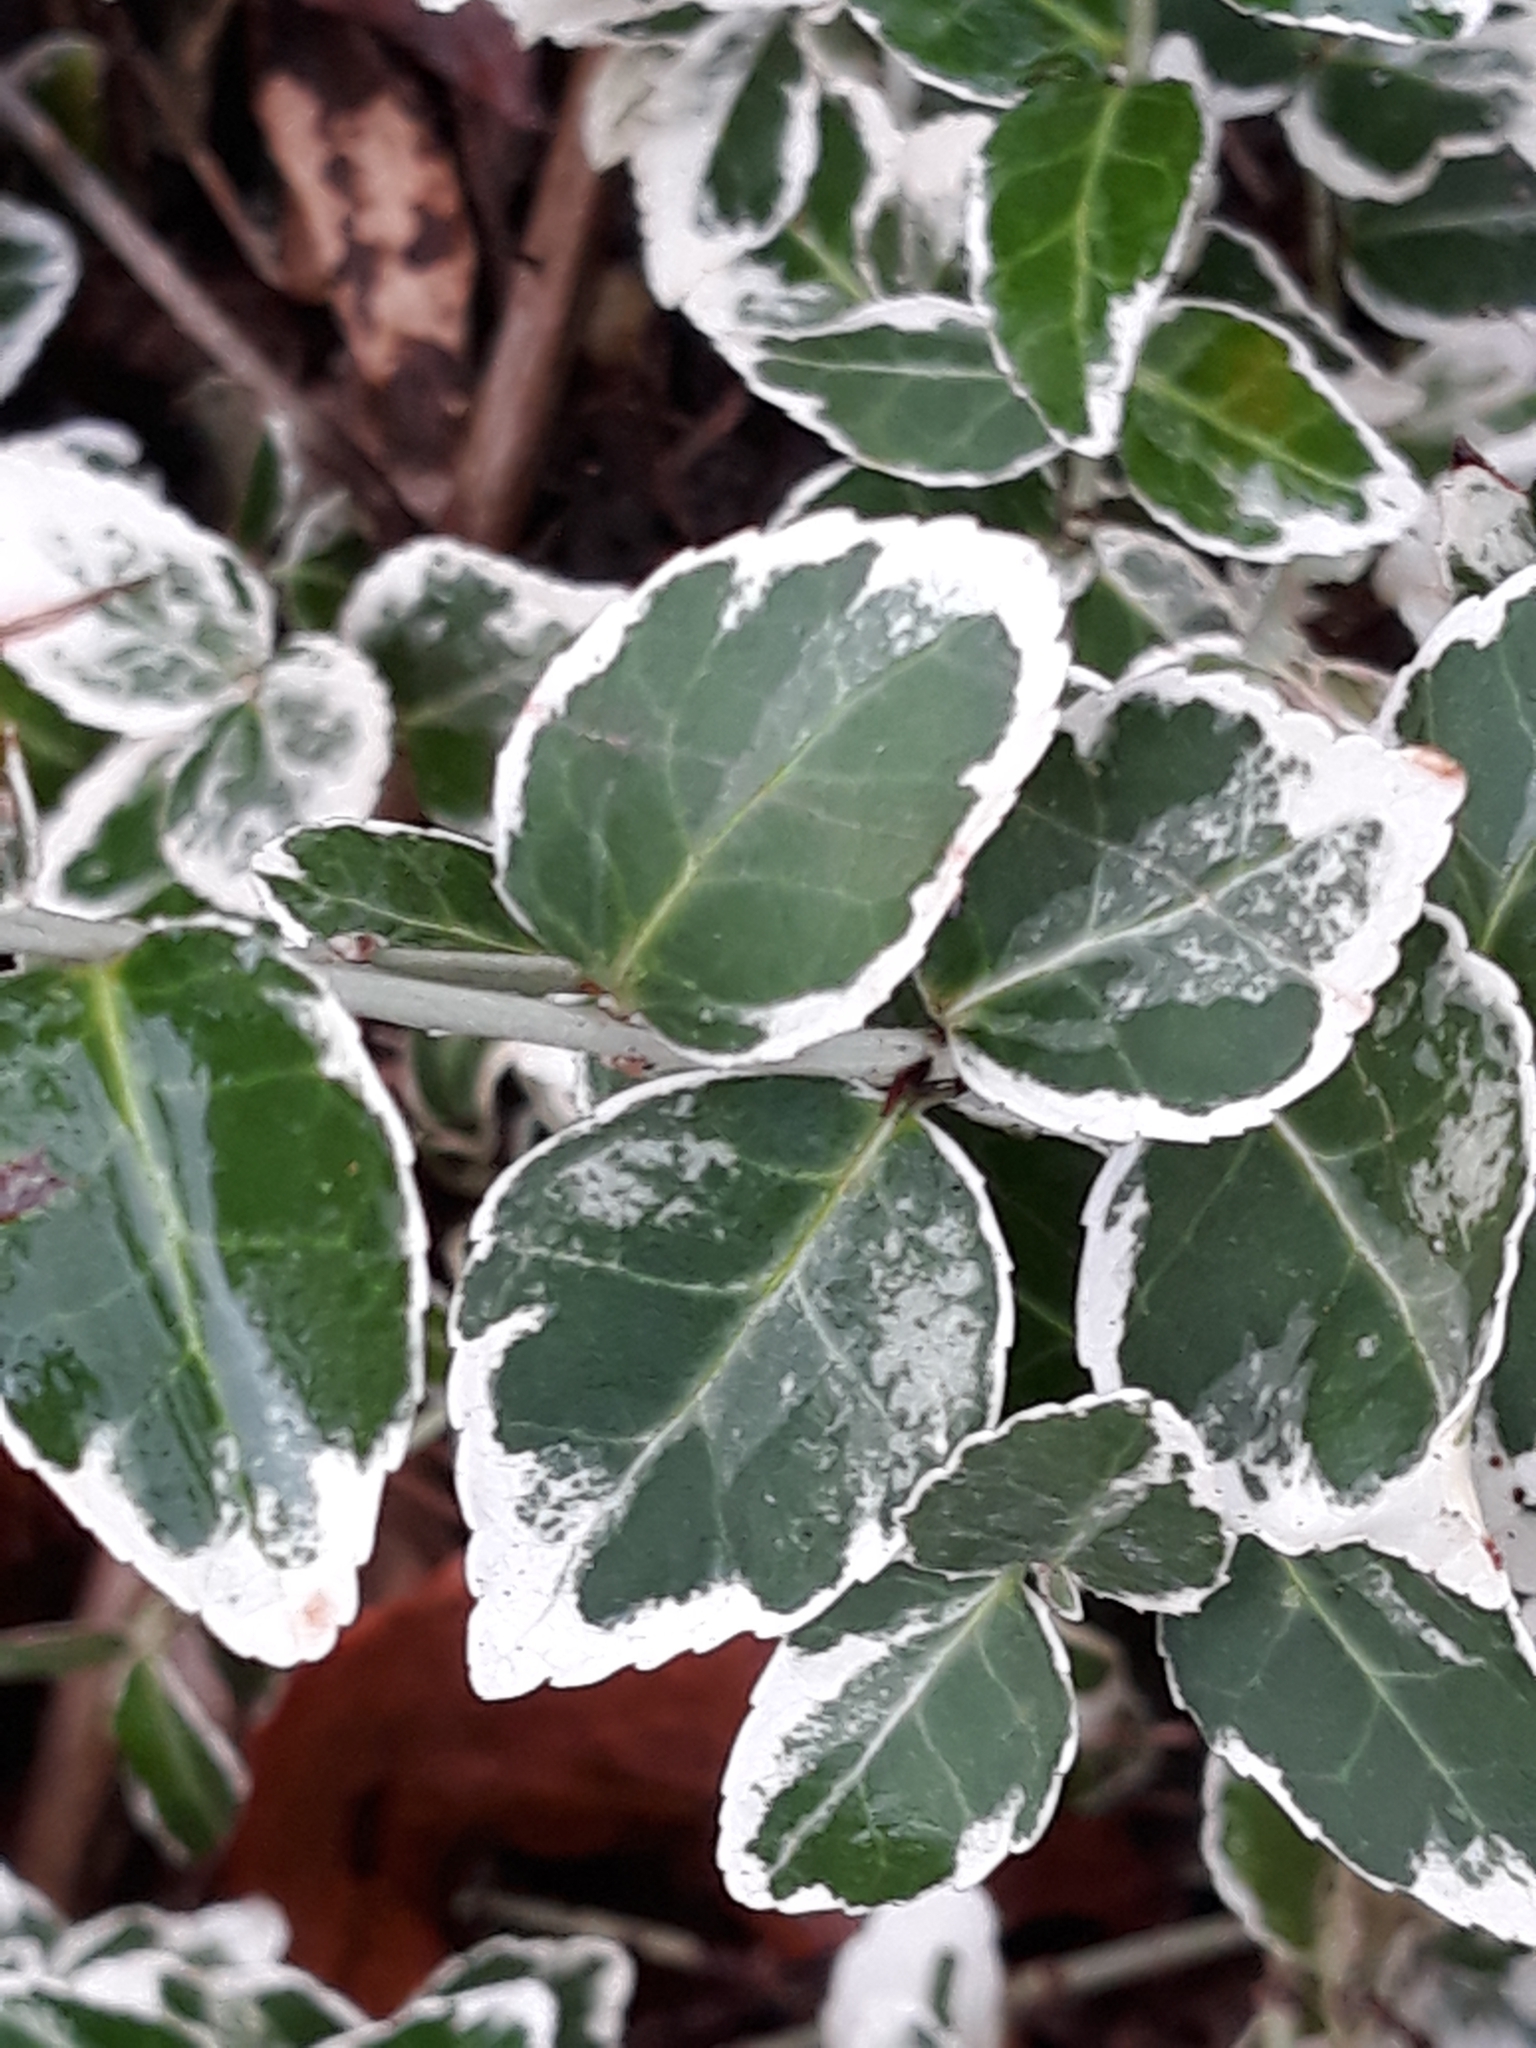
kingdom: Plantae
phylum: Tracheophyta
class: Magnoliopsida
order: Celastrales
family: Celastraceae
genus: Euonymus
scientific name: Euonymus japonicus
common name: Japanese spindletree
